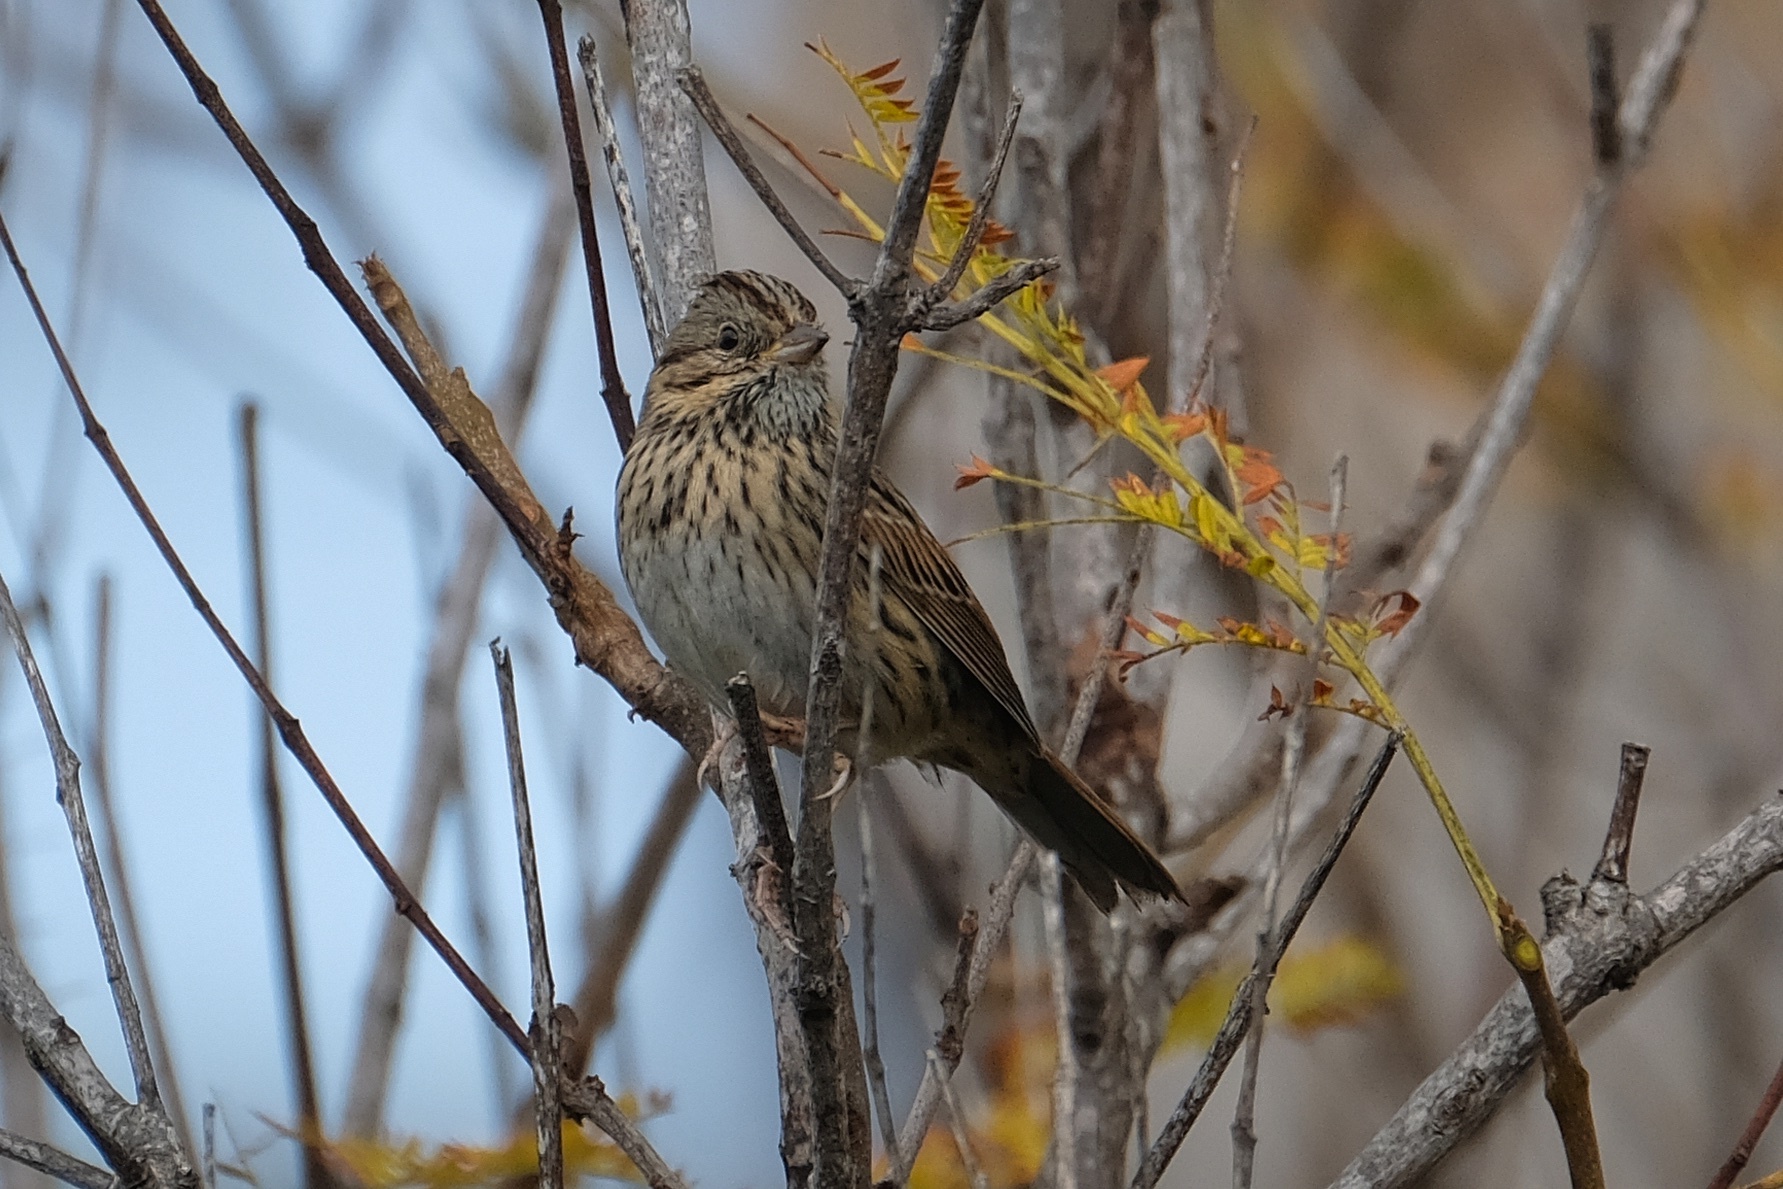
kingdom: Animalia
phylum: Chordata
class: Aves
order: Passeriformes
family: Passerellidae
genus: Melospiza
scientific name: Melospiza lincolnii
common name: Lincoln's sparrow
